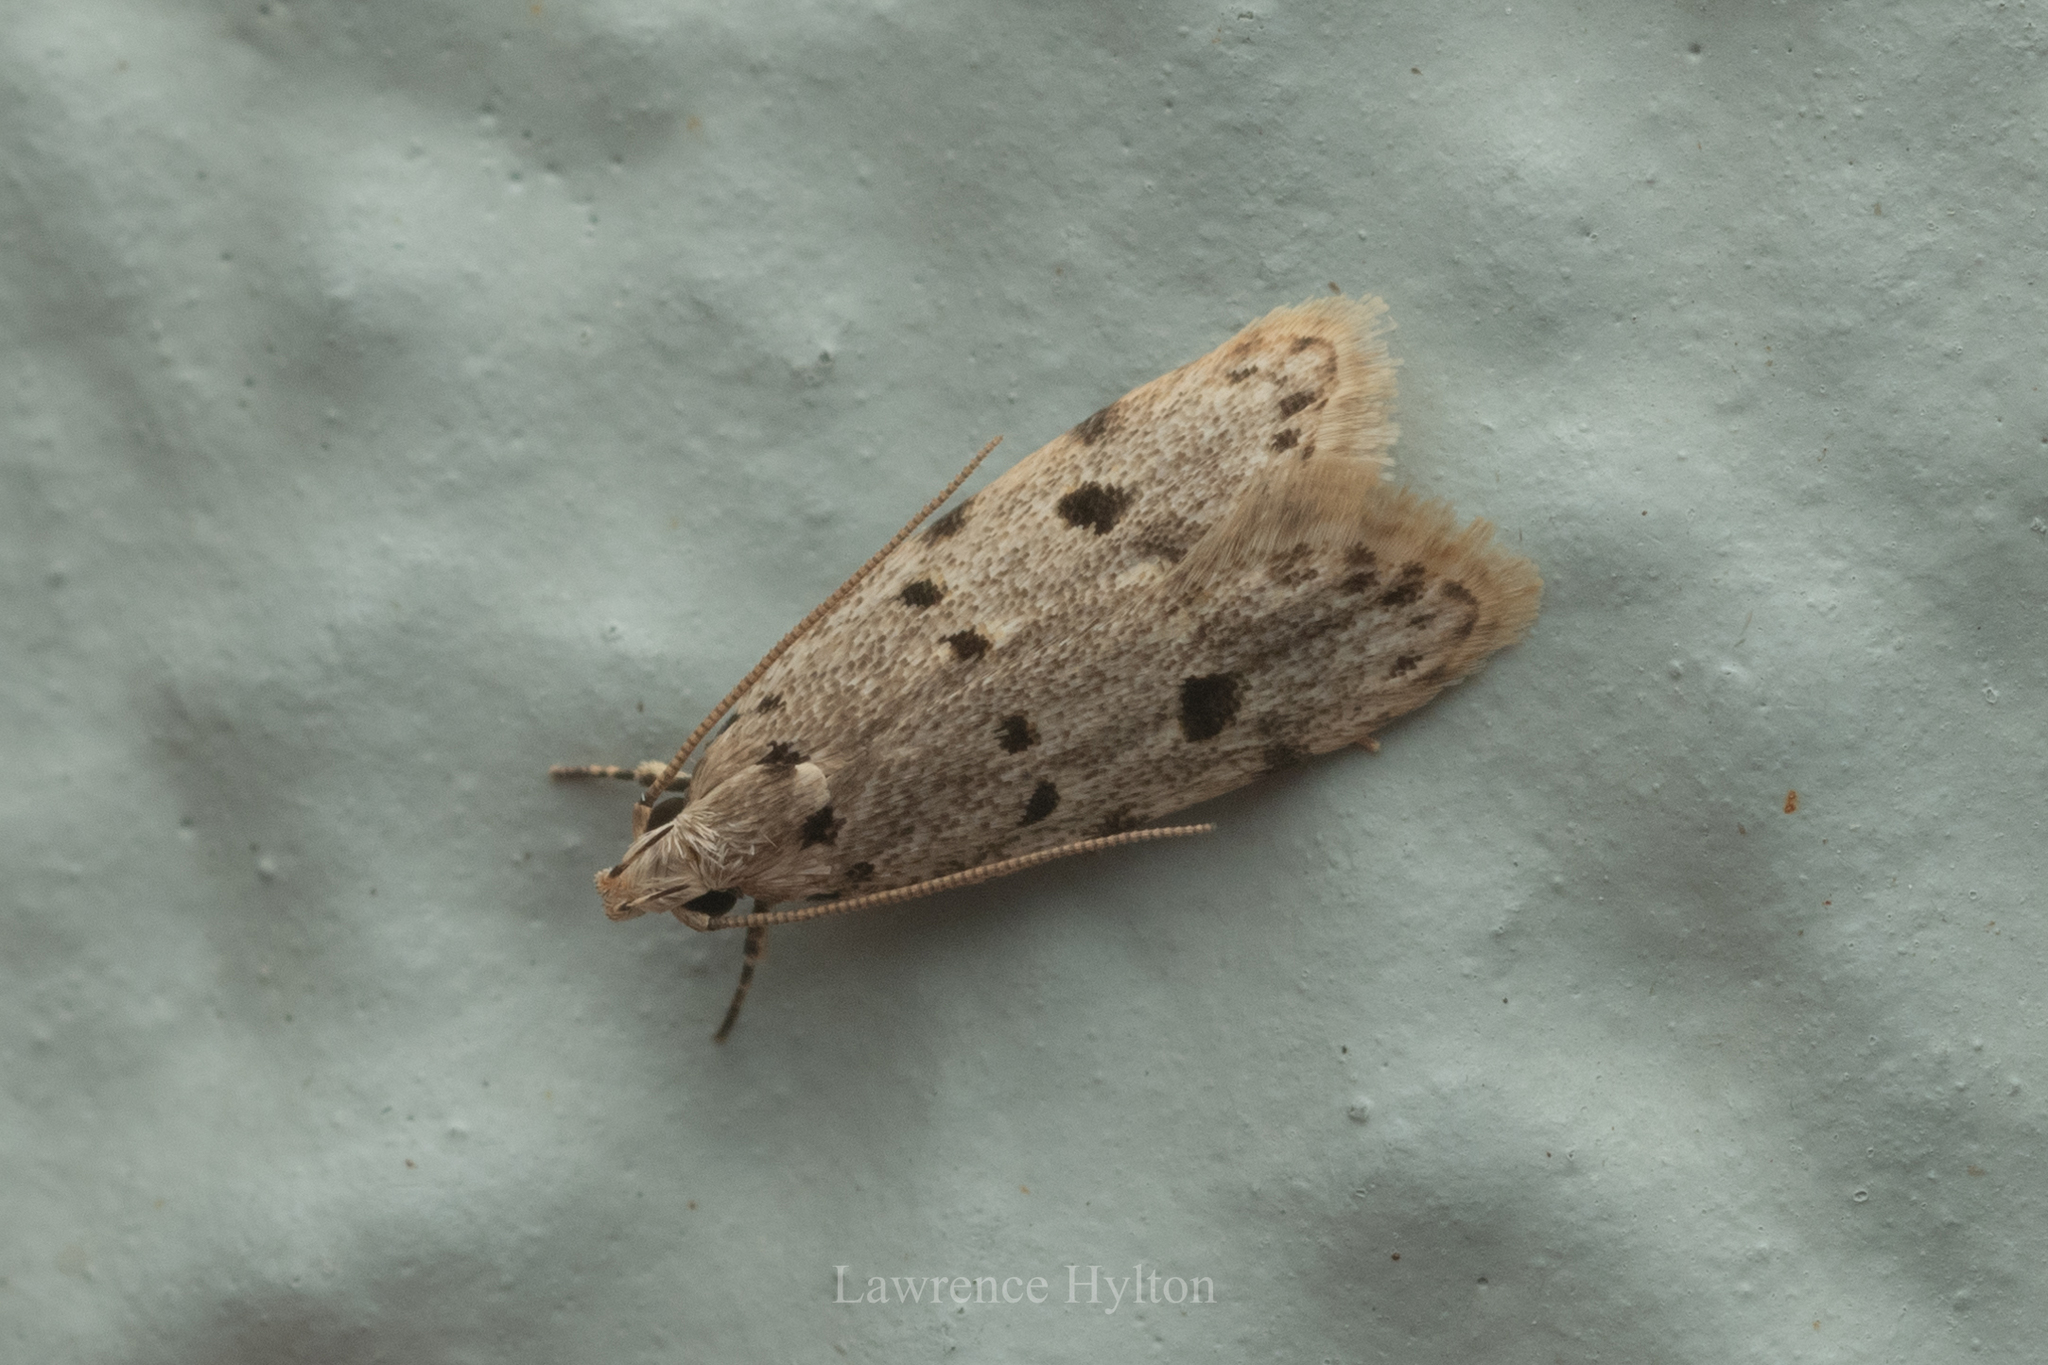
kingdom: Animalia
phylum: Arthropoda
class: Insecta
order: Lepidoptera
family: Autostichidae
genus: Autosticha
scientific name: Autosticha calceata
